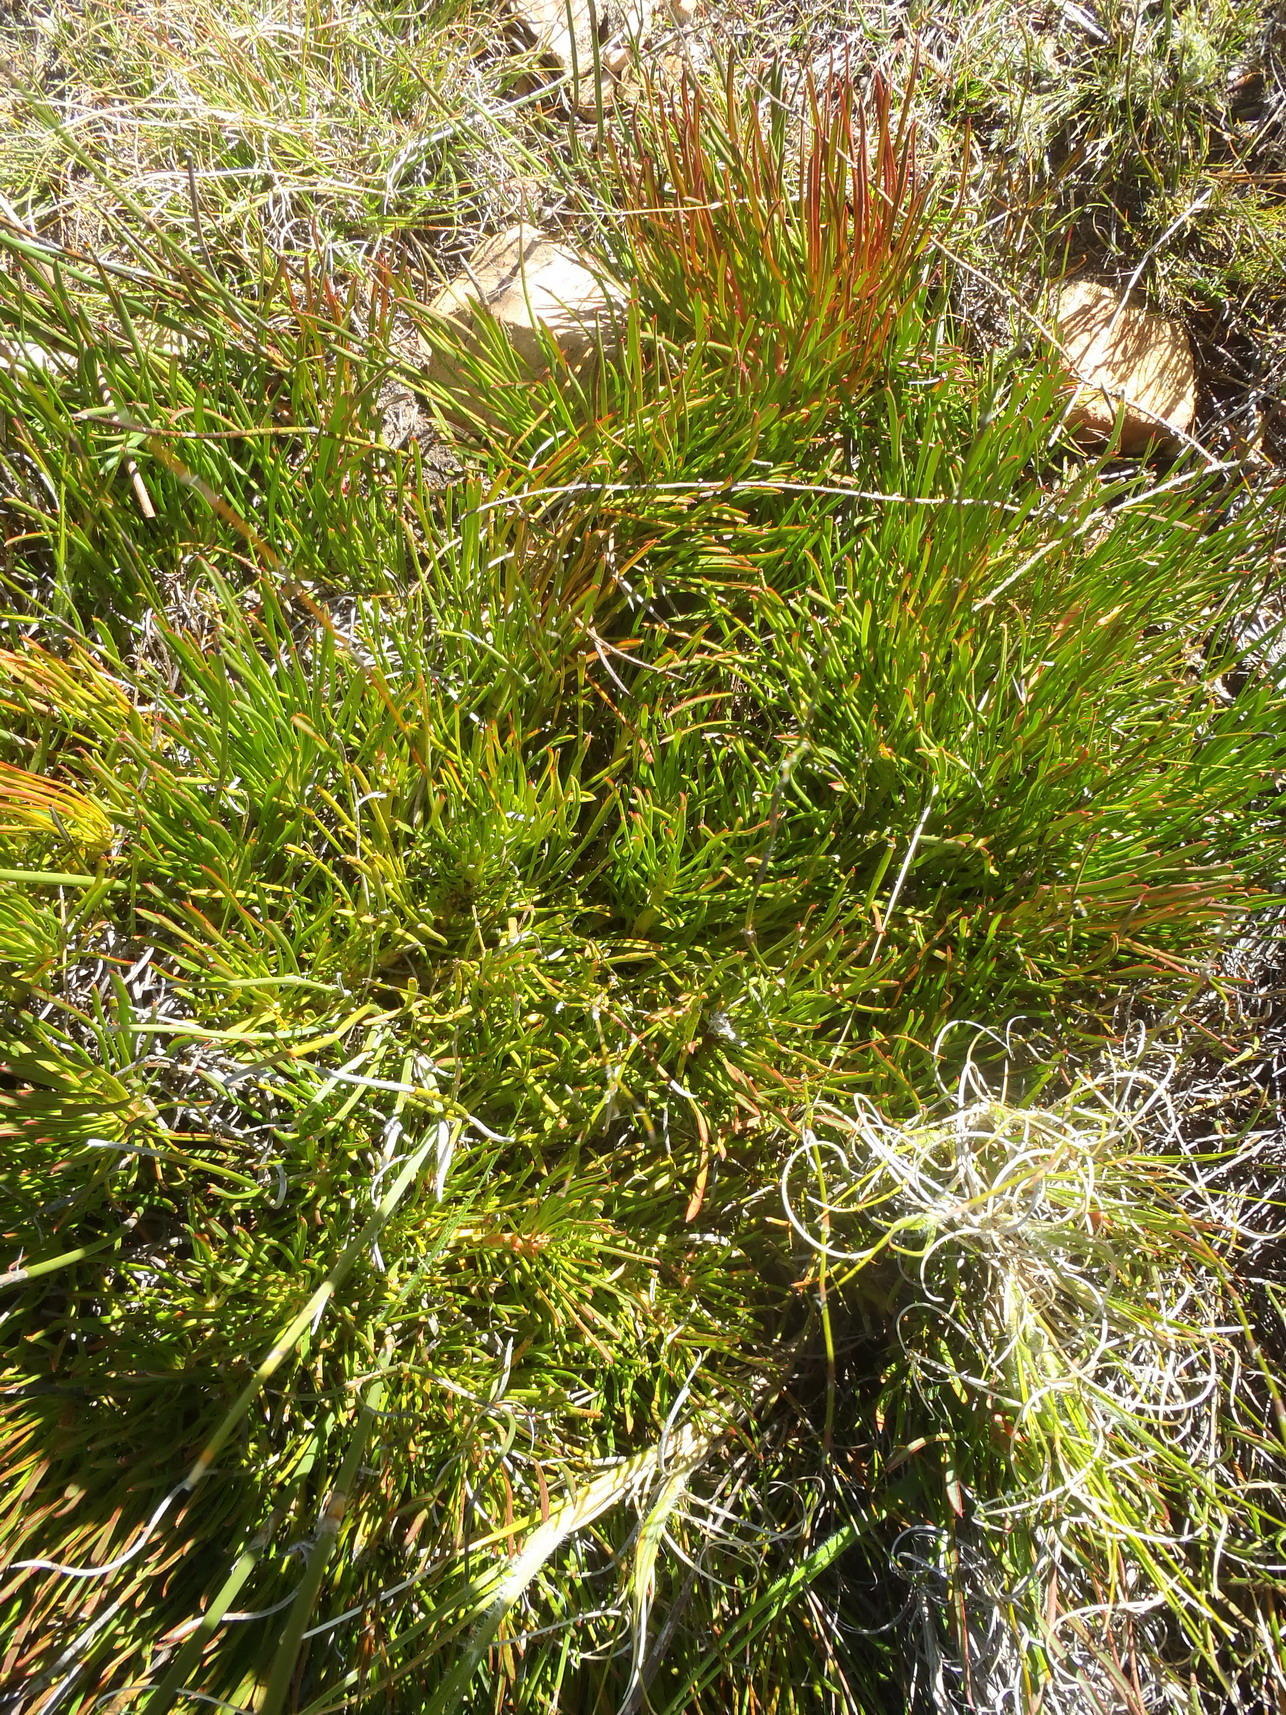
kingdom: Plantae
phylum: Tracheophyta
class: Magnoliopsida
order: Proteales
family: Proteaceae
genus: Protea
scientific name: Protea montana
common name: Swartberg sugarbush
